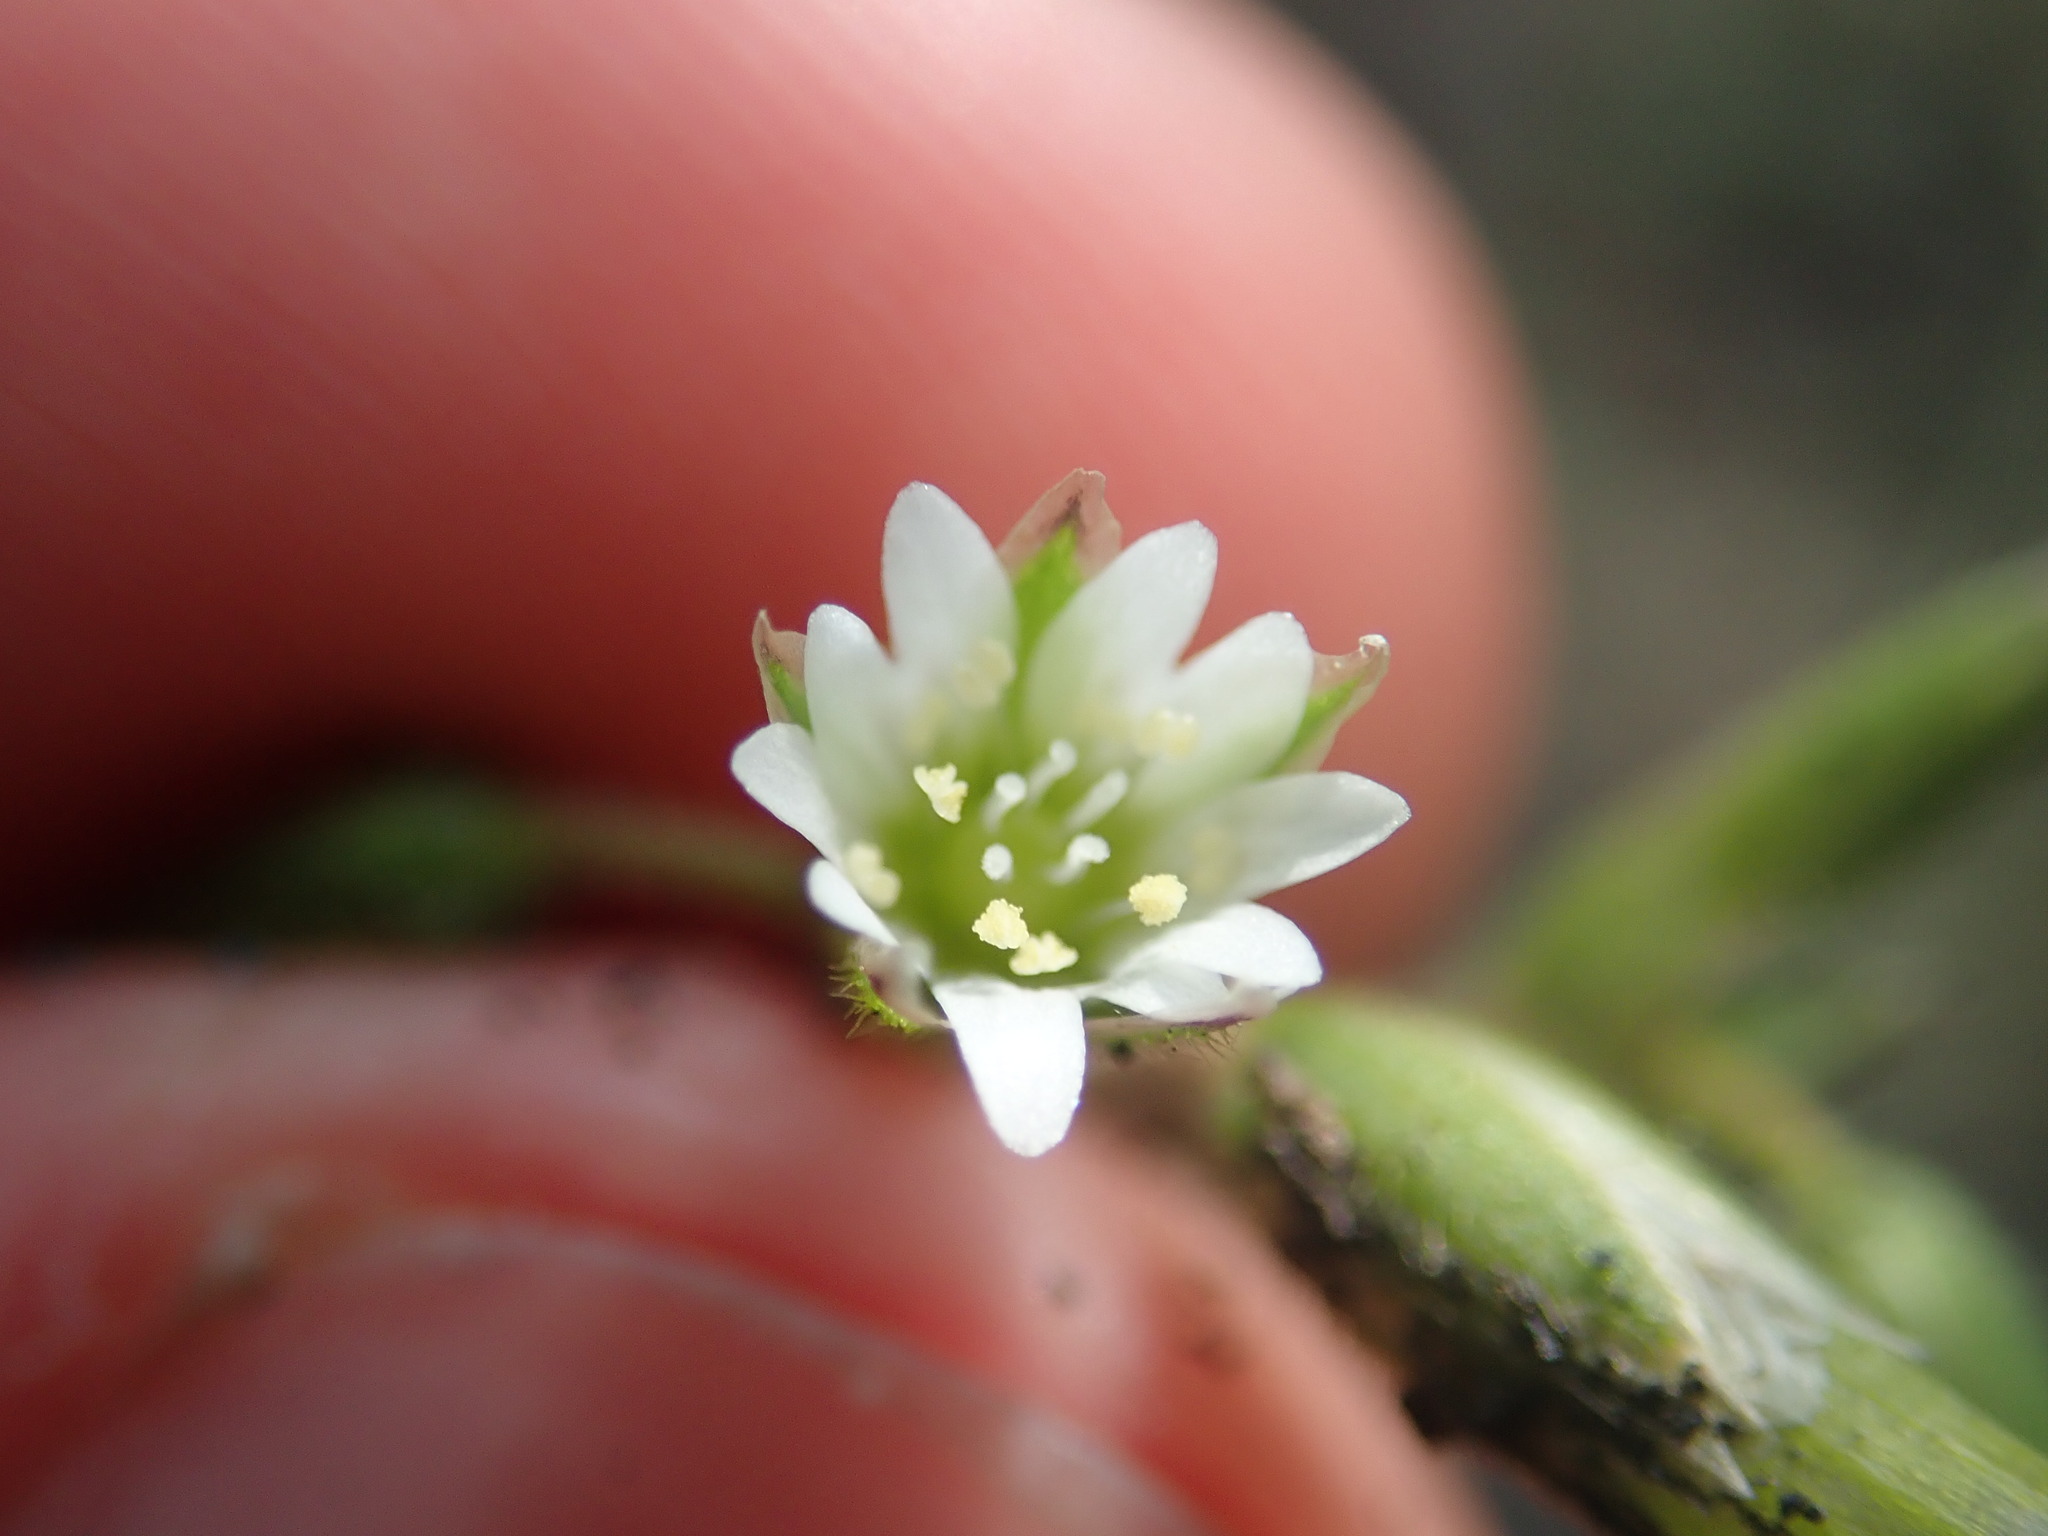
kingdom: Plantae
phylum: Tracheophyta
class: Magnoliopsida
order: Caryophyllales
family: Caryophyllaceae
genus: Cerastium
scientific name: Cerastium holosteoides
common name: Big chickweed
